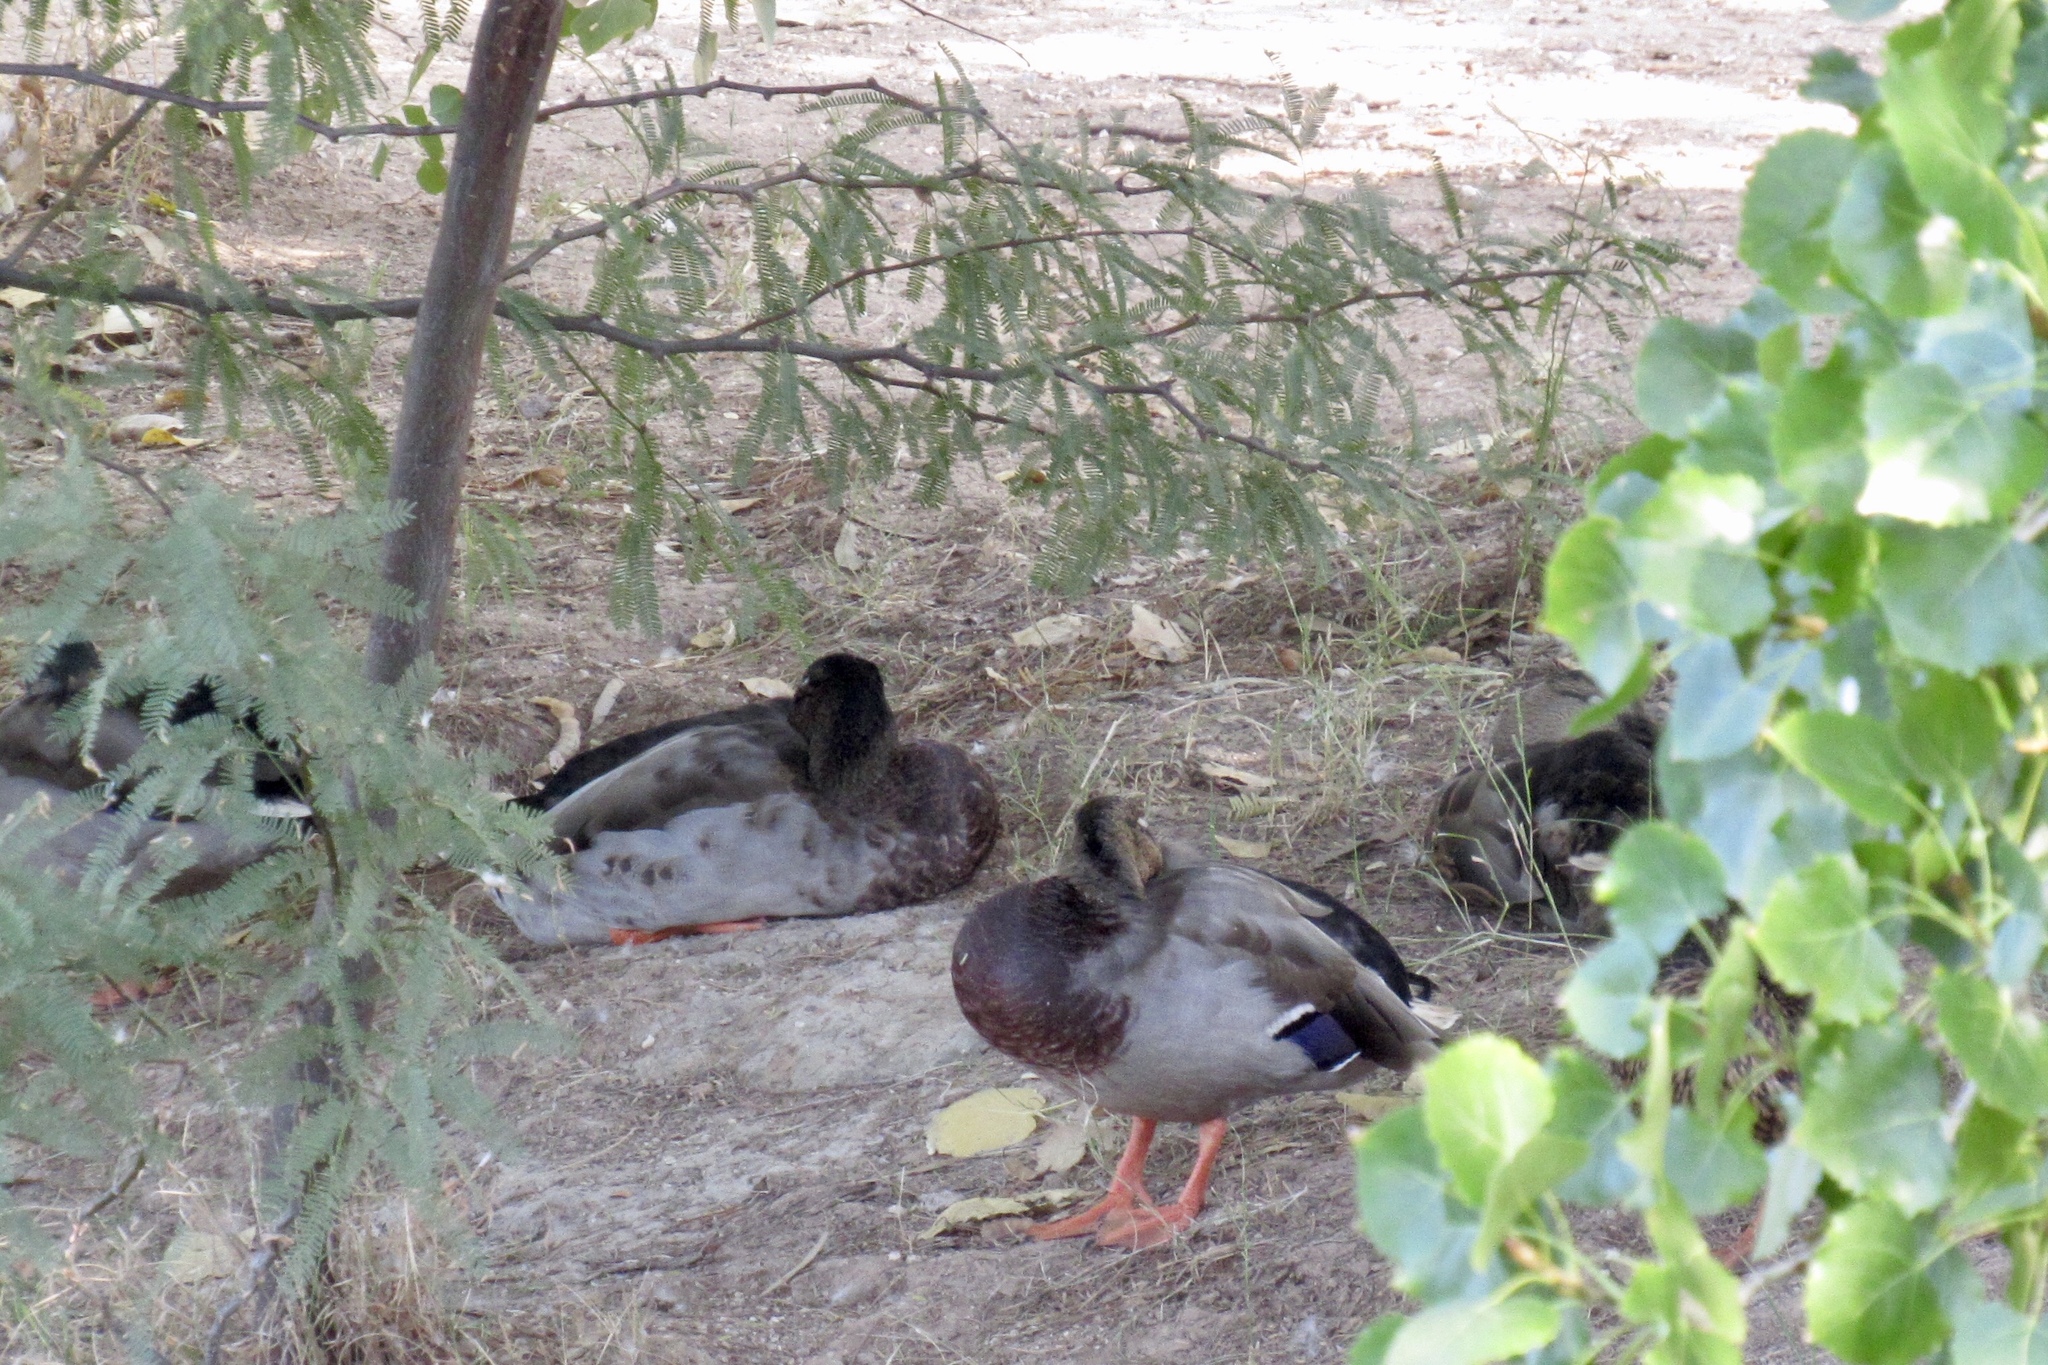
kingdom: Animalia
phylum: Chordata
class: Aves
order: Anseriformes
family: Anatidae
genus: Anas
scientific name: Anas platyrhynchos
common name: Mallard
